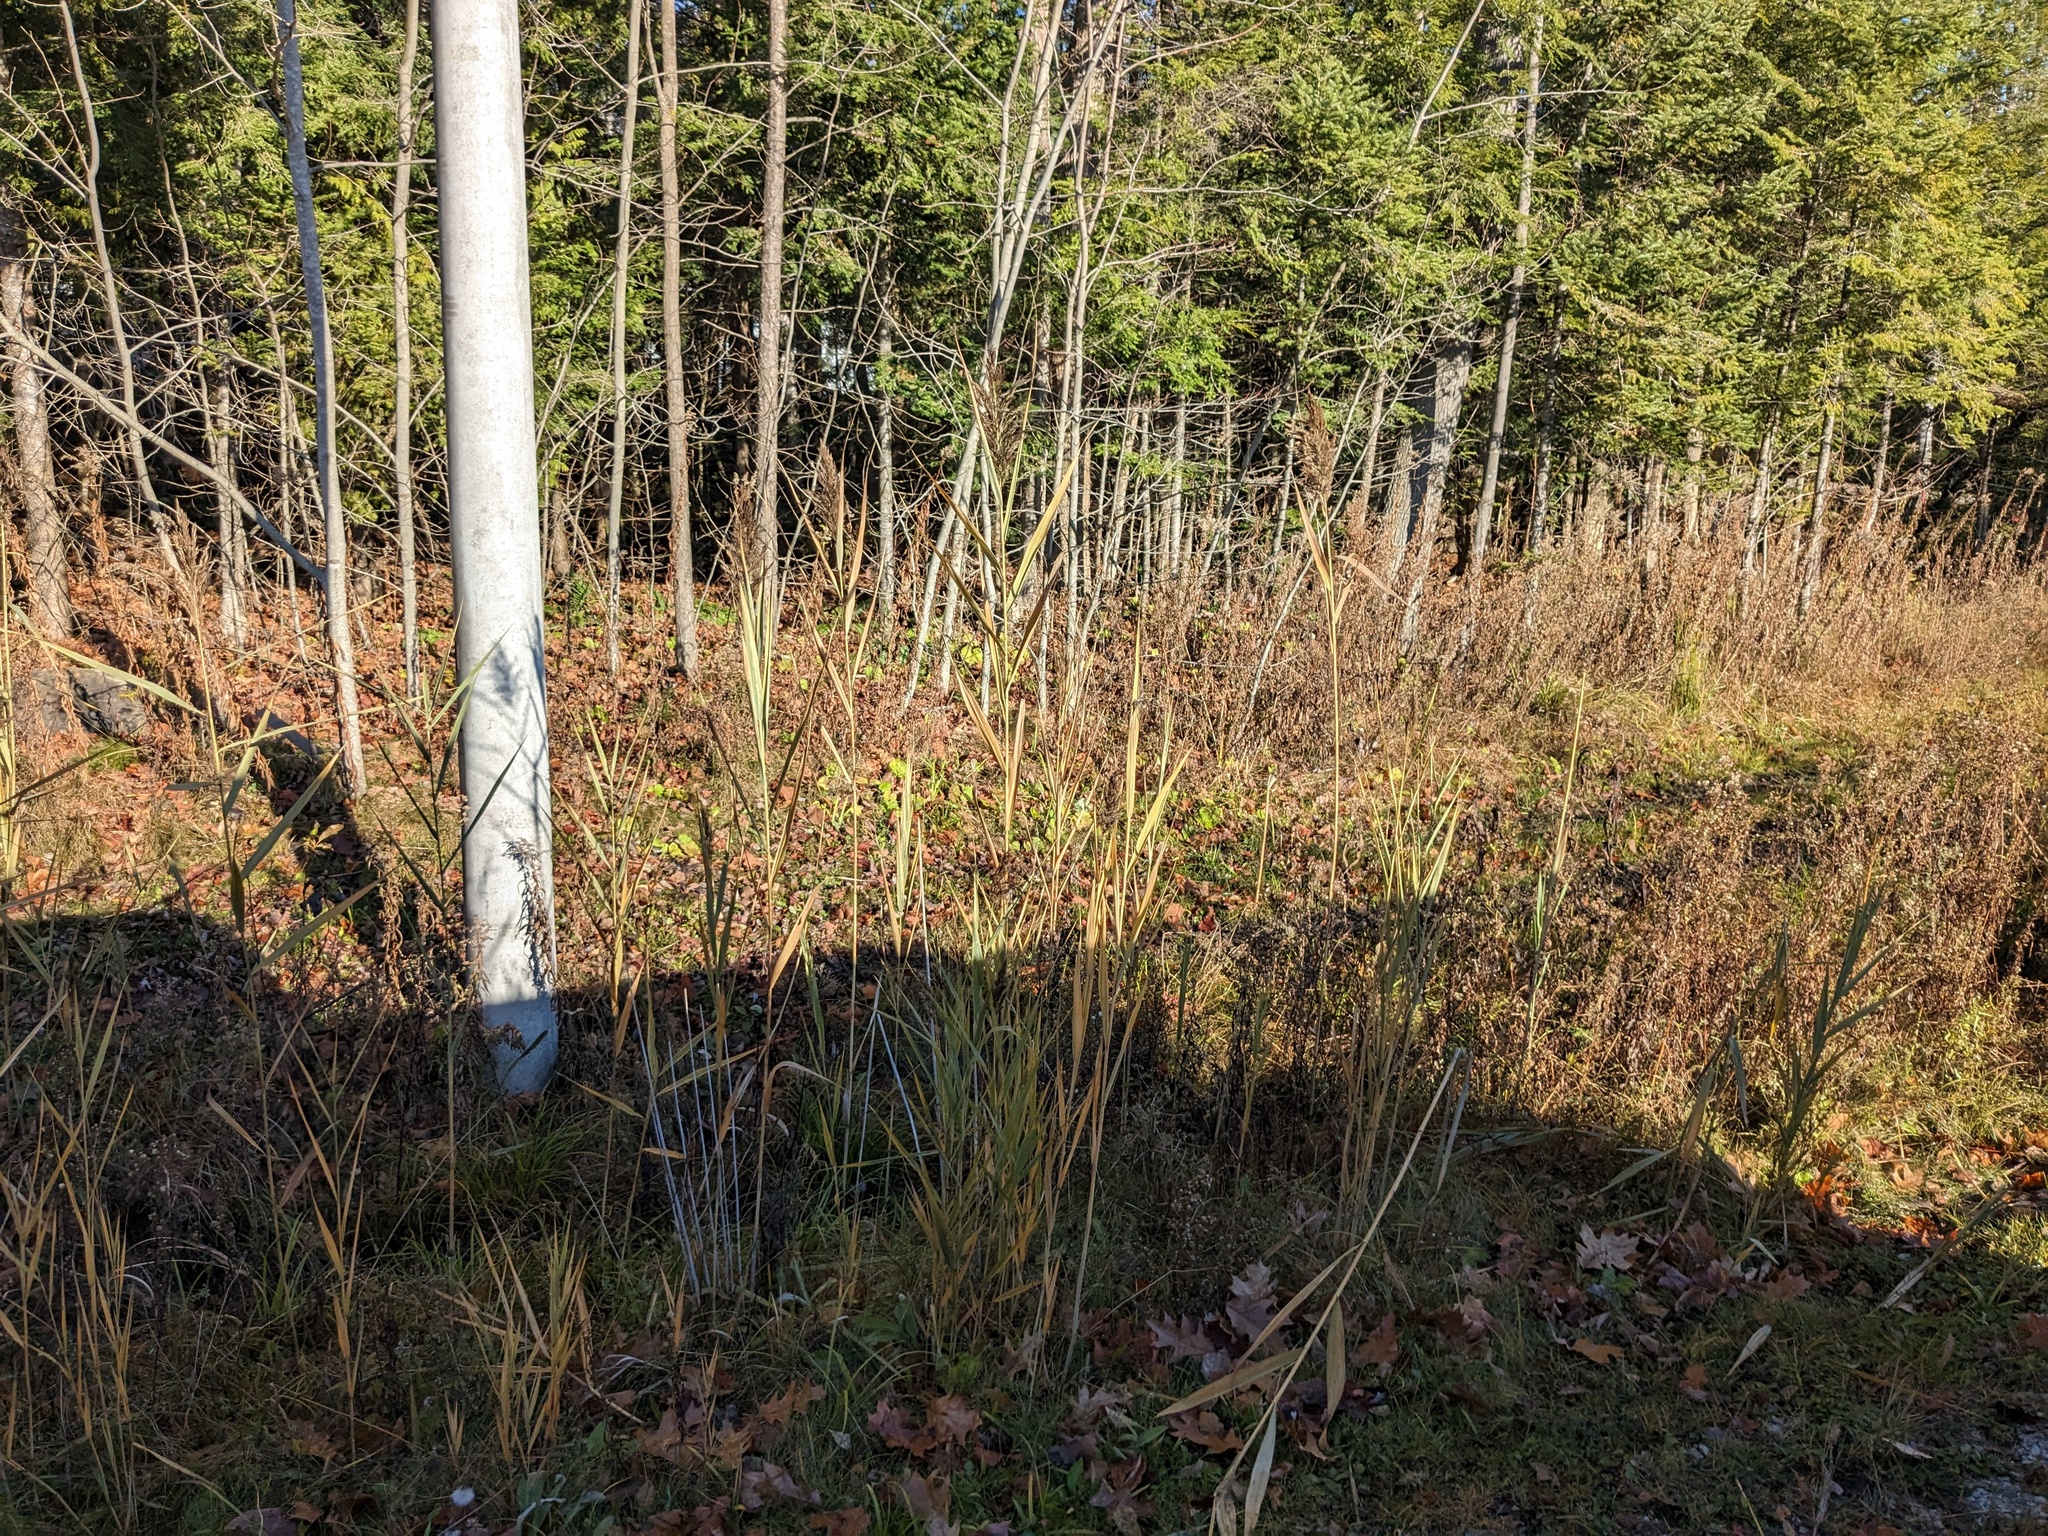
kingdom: Plantae
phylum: Tracheophyta
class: Liliopsida
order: Poales
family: Poaceae
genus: Phragmites
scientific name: Phragmites australis
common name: Common reed
